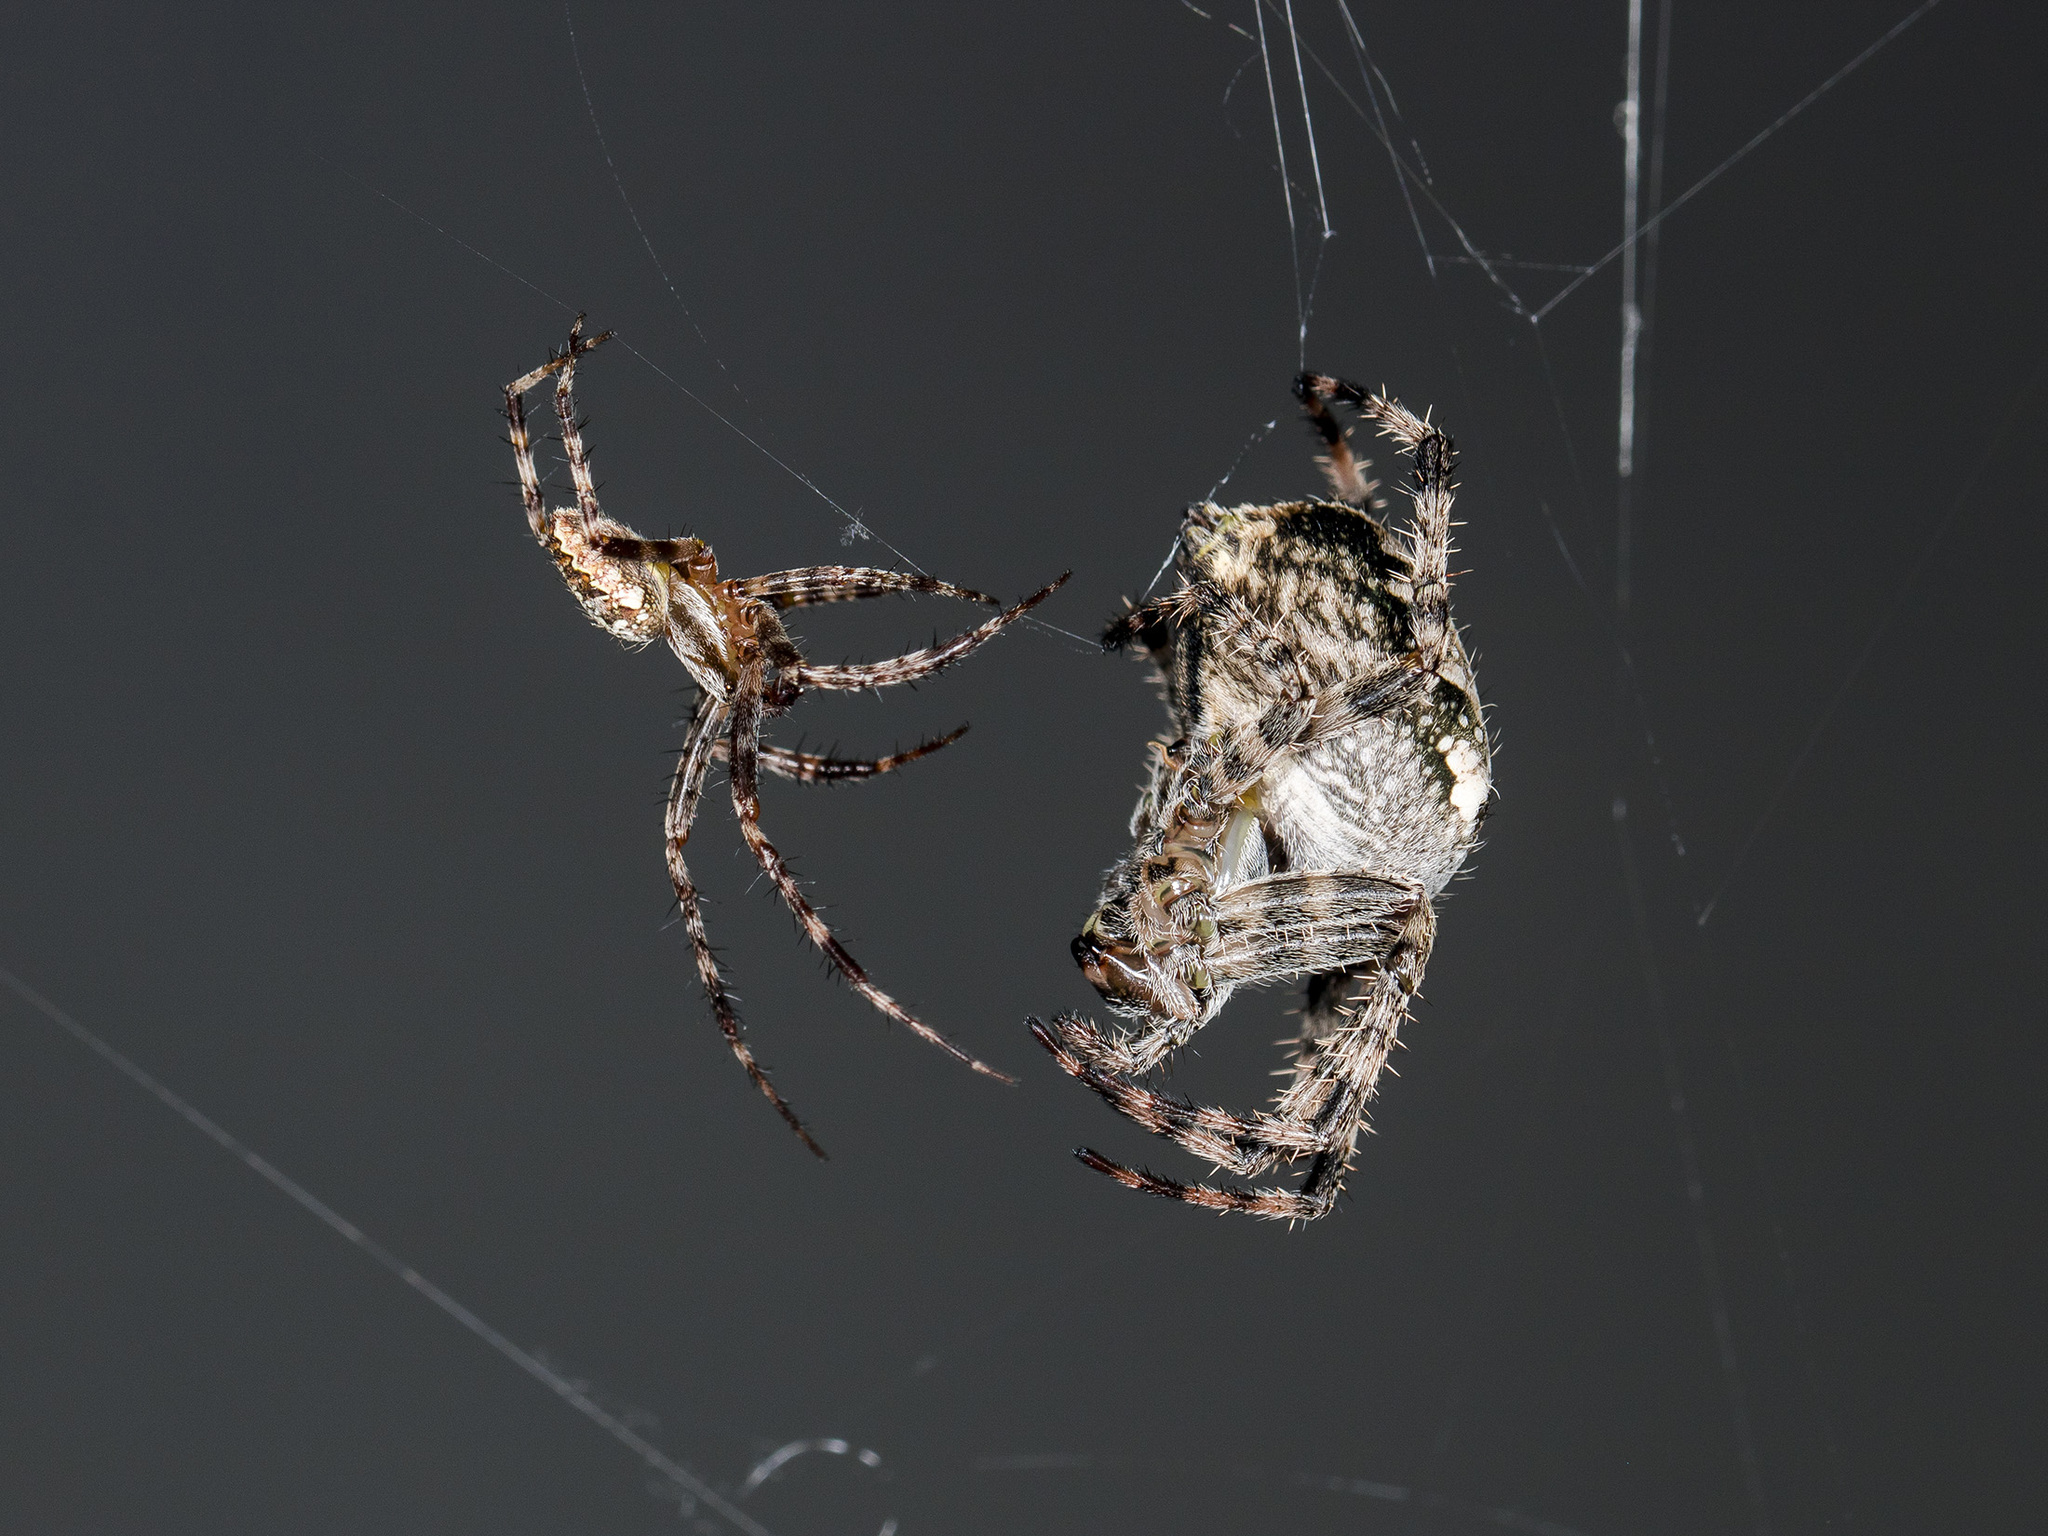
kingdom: Animalia
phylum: Arthropoda
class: Arachnida
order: Araneae
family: Araneidae
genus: Araneus
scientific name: Araneus diadematus
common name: Cross orbweaver
